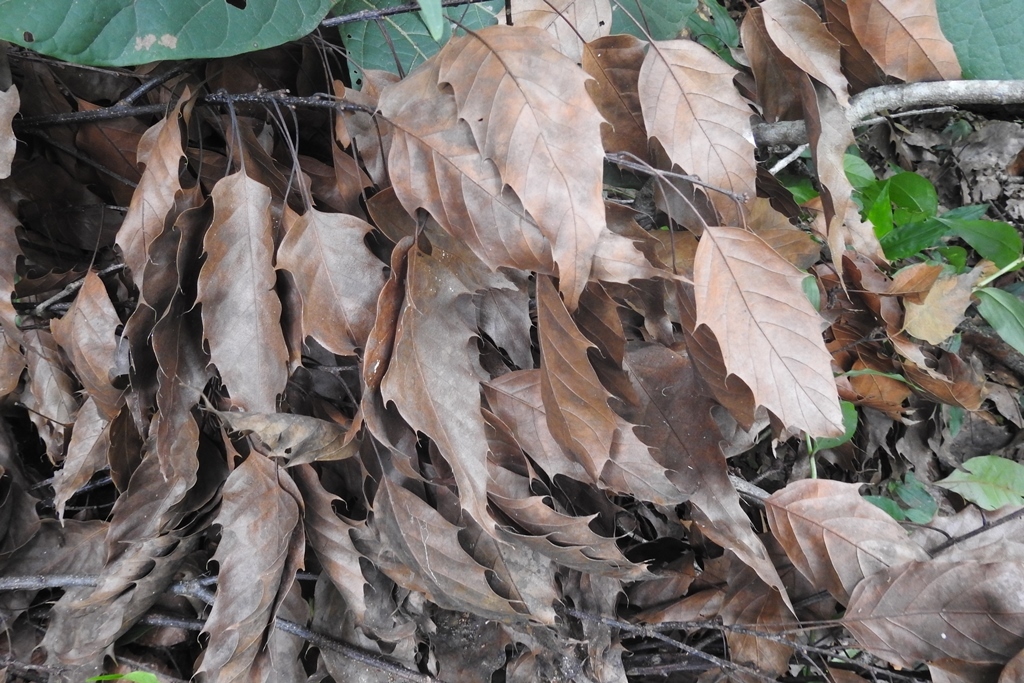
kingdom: Plantae
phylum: Tracheophyta
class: Magnoliopsida
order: Fagales
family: Fagaceae
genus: Quercus
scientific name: Quercus paxtalensis
